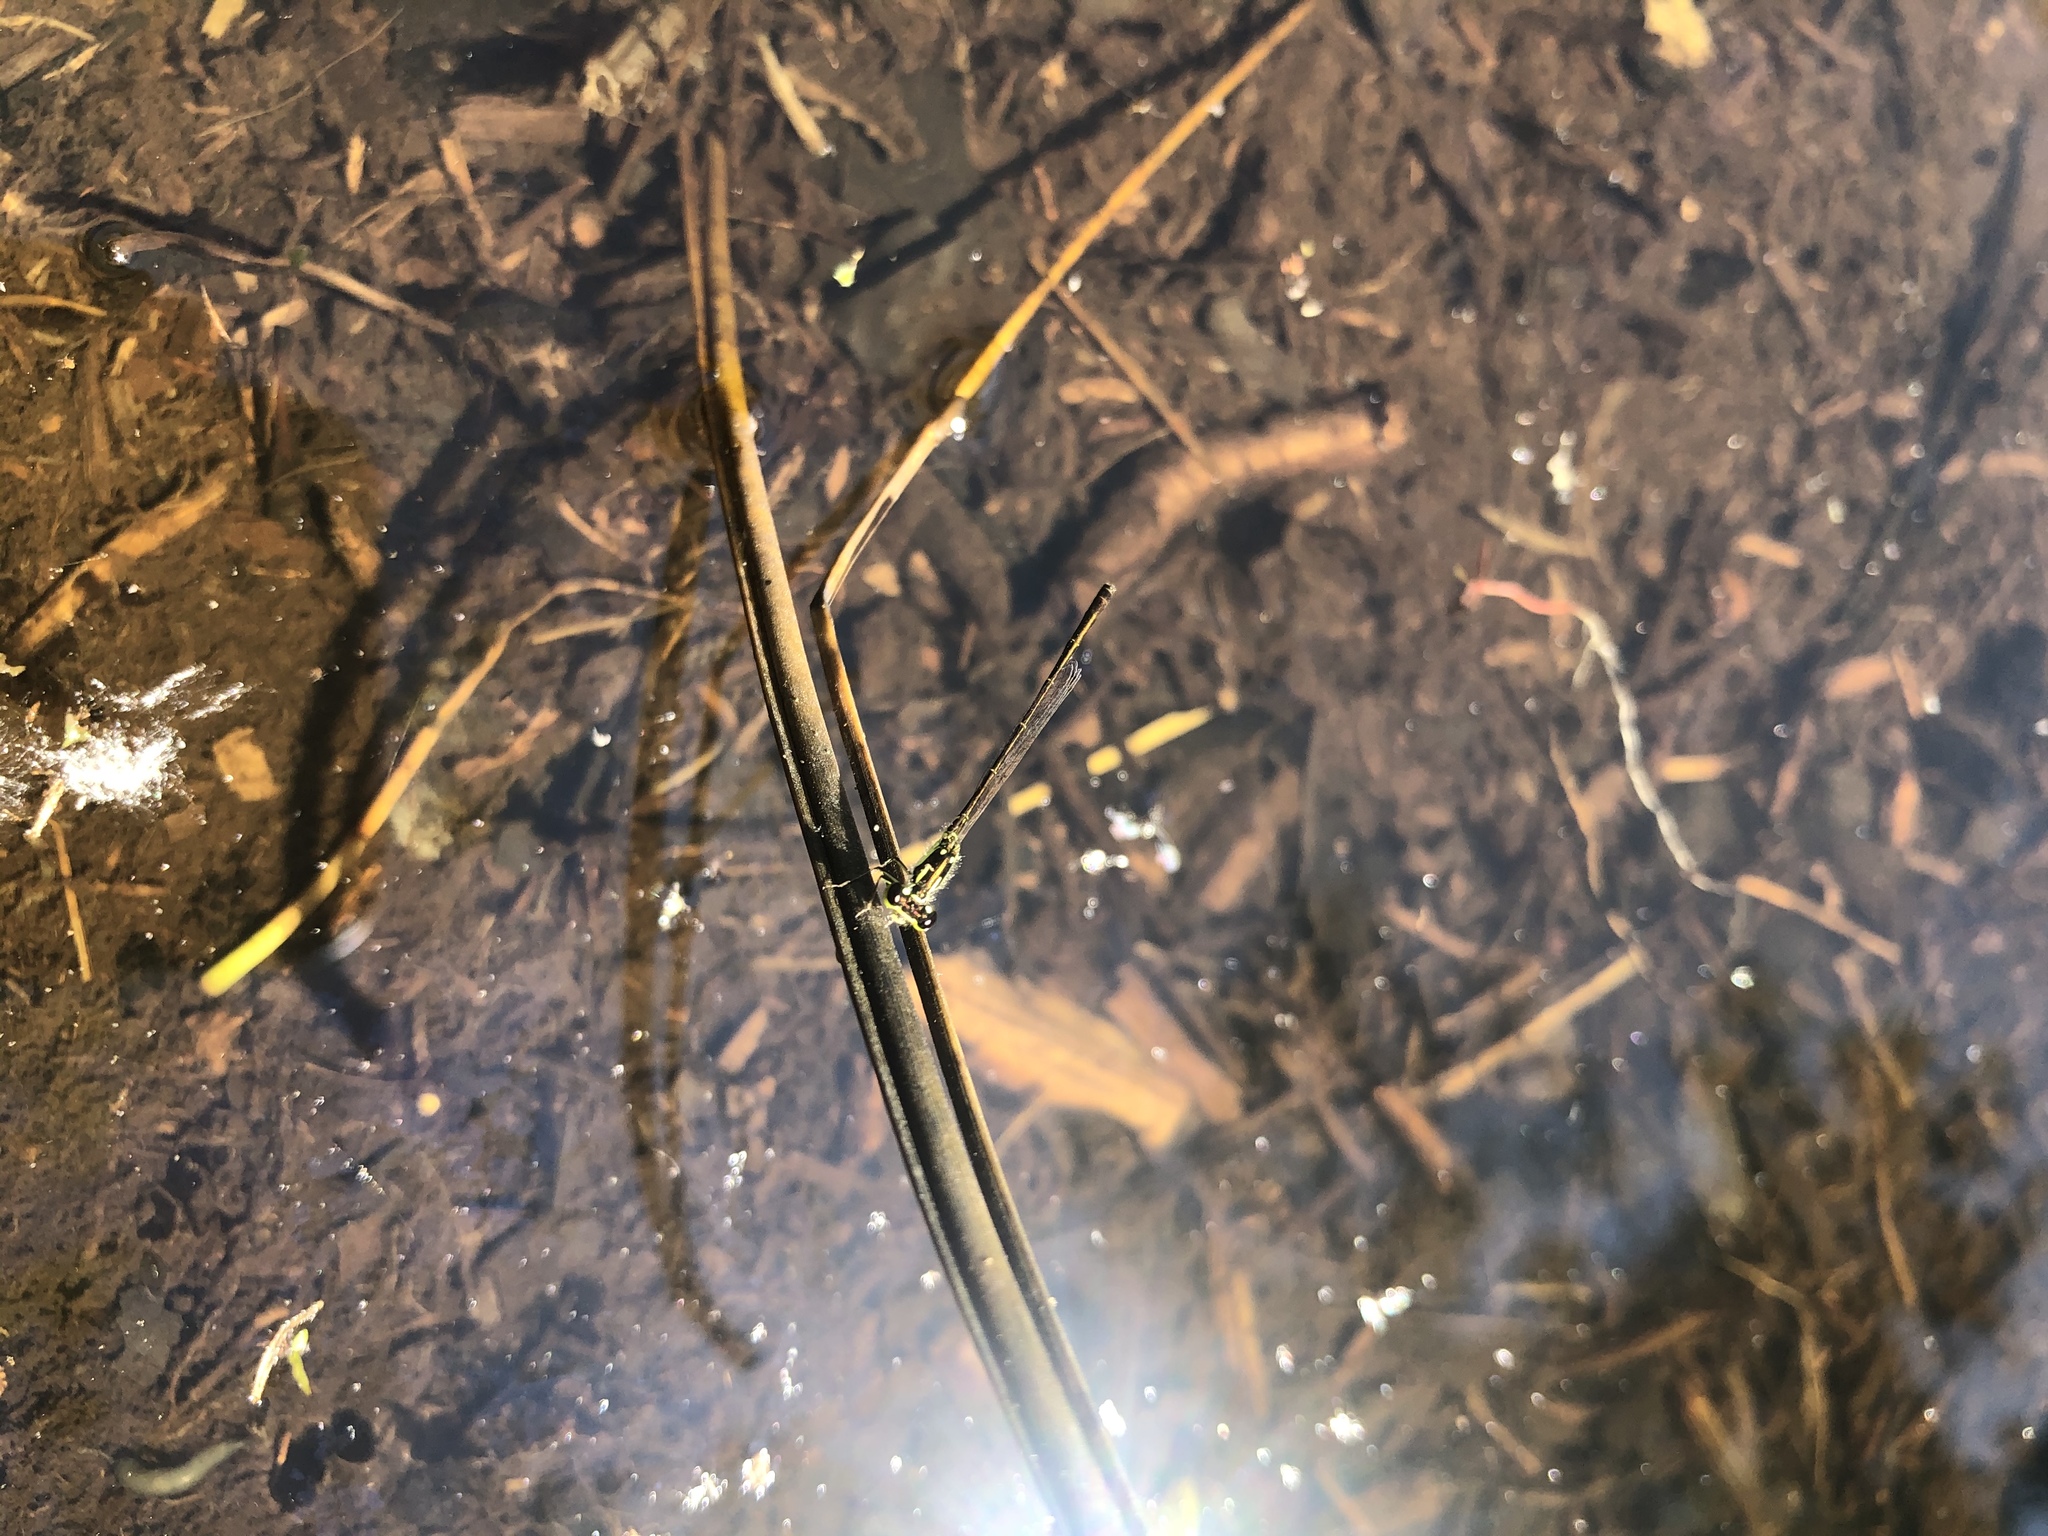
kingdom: Animalia
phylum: Arthropoda
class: Insecta
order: Odonata
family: Coenagrionidae
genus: Ischnura
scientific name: Ischnura posita
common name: Fragile forktail
